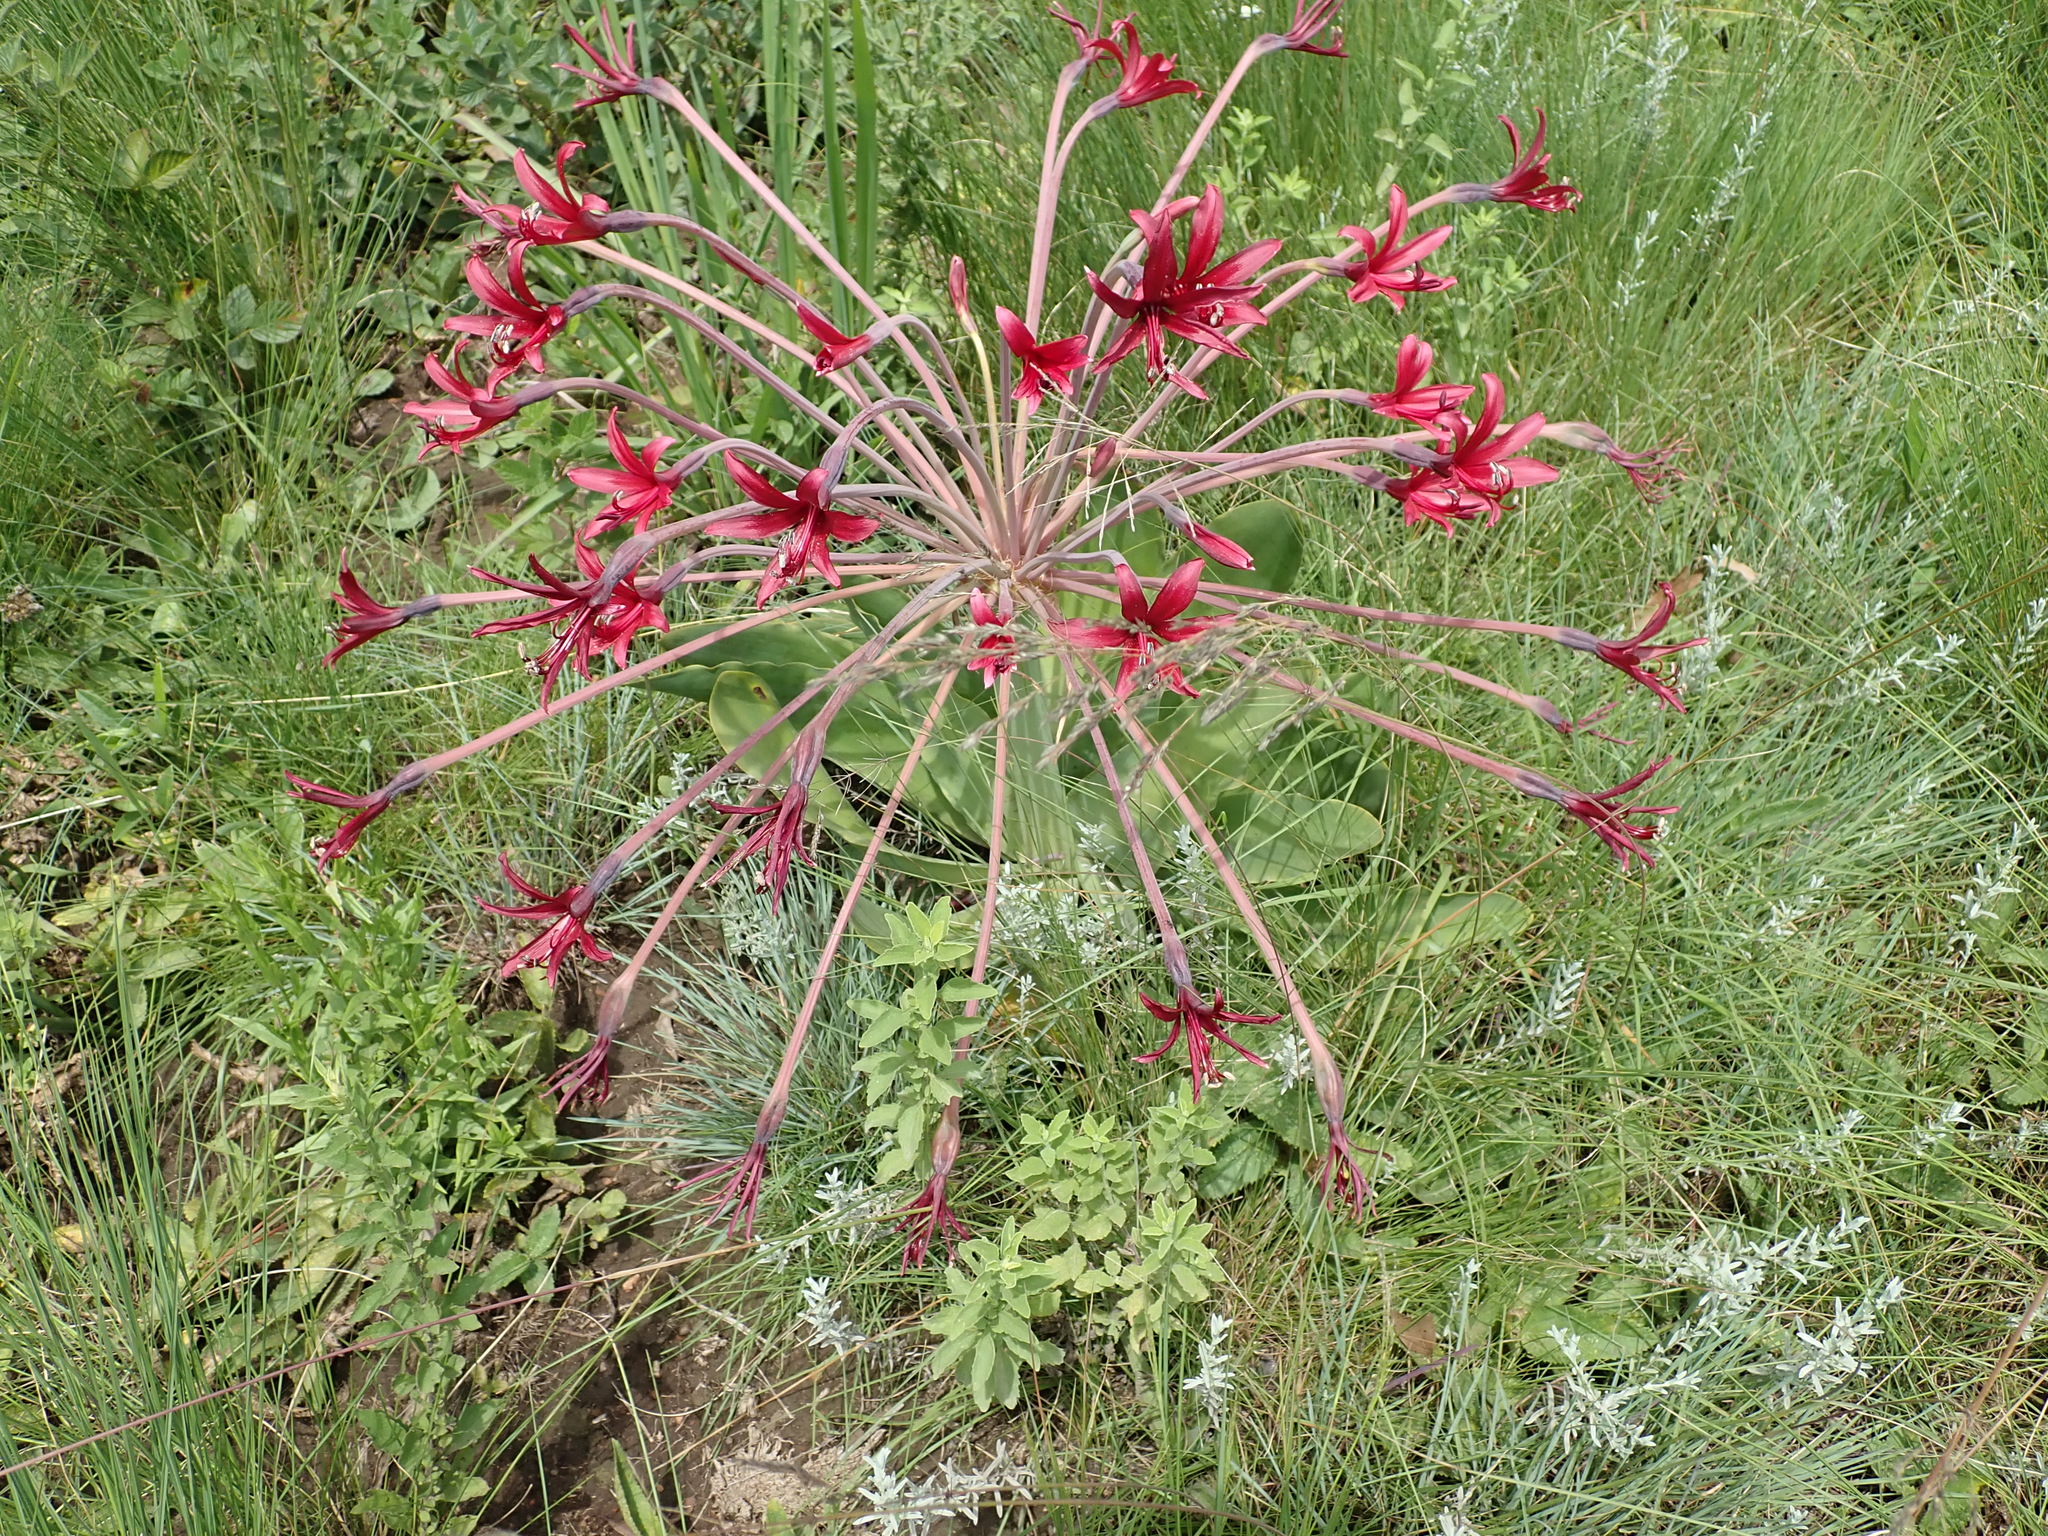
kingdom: Plantae
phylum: Tracheophyta
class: Liliopsida
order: Asparagales
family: Amaryllidaceae
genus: Brunsvigia
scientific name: Brunsvigia undulata
